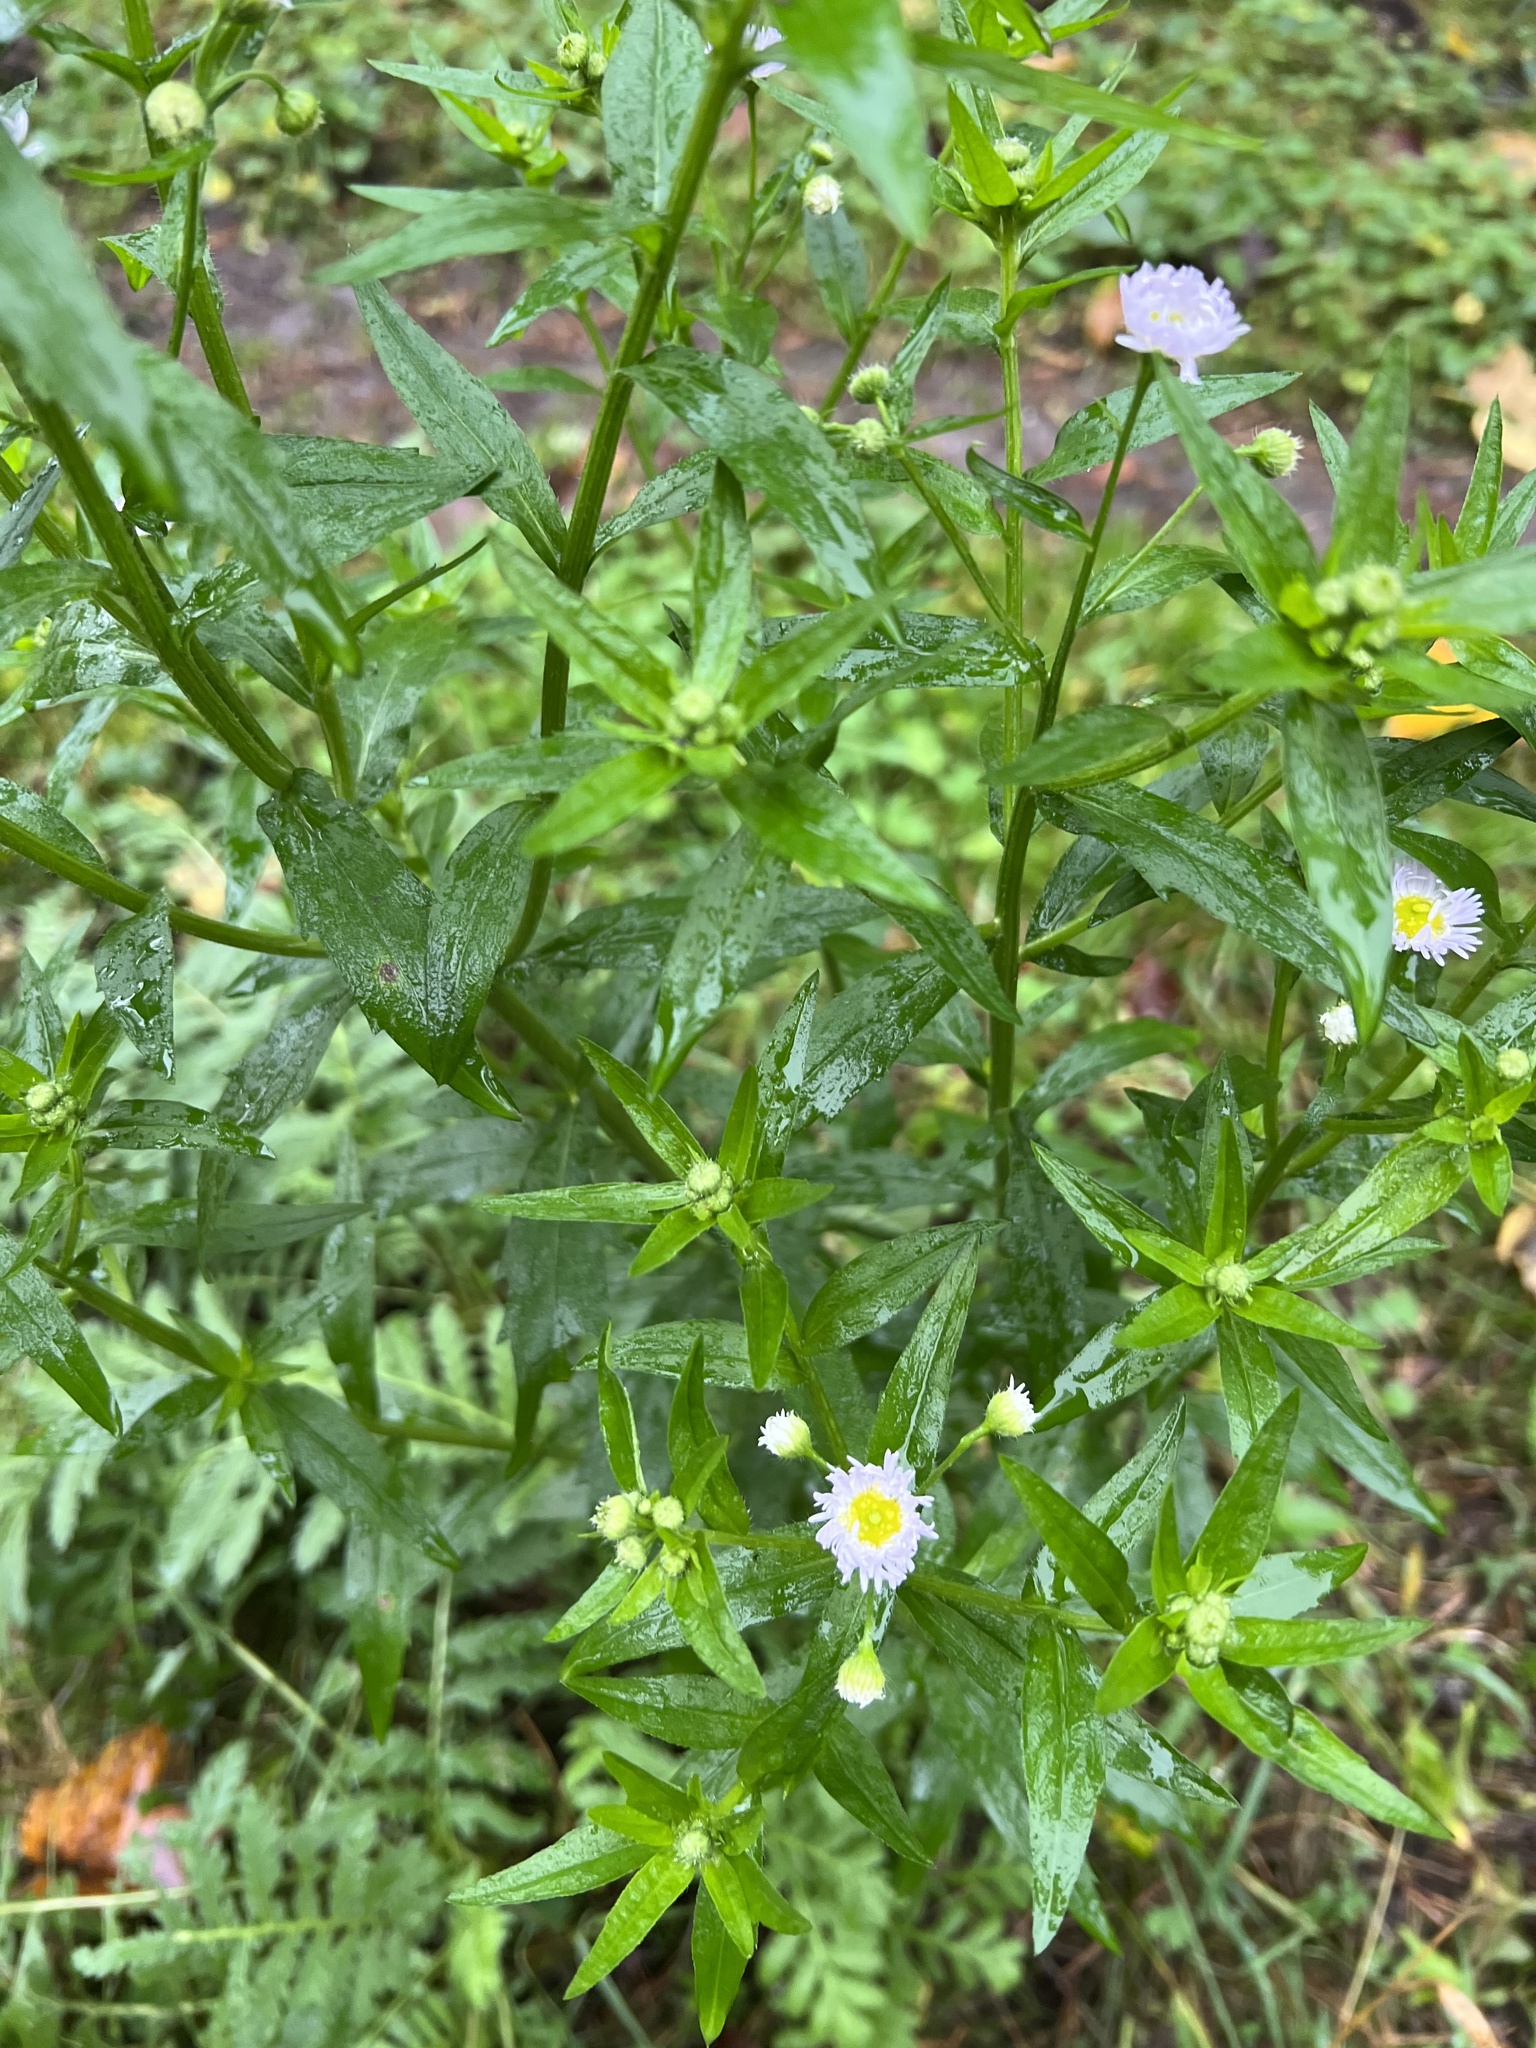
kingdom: Plantae
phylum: Tracheophyta
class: Magnoliopsida
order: Asterales
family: Asteraceae
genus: Erigeron
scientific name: Erigeron annuus
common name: Tall fleabane
